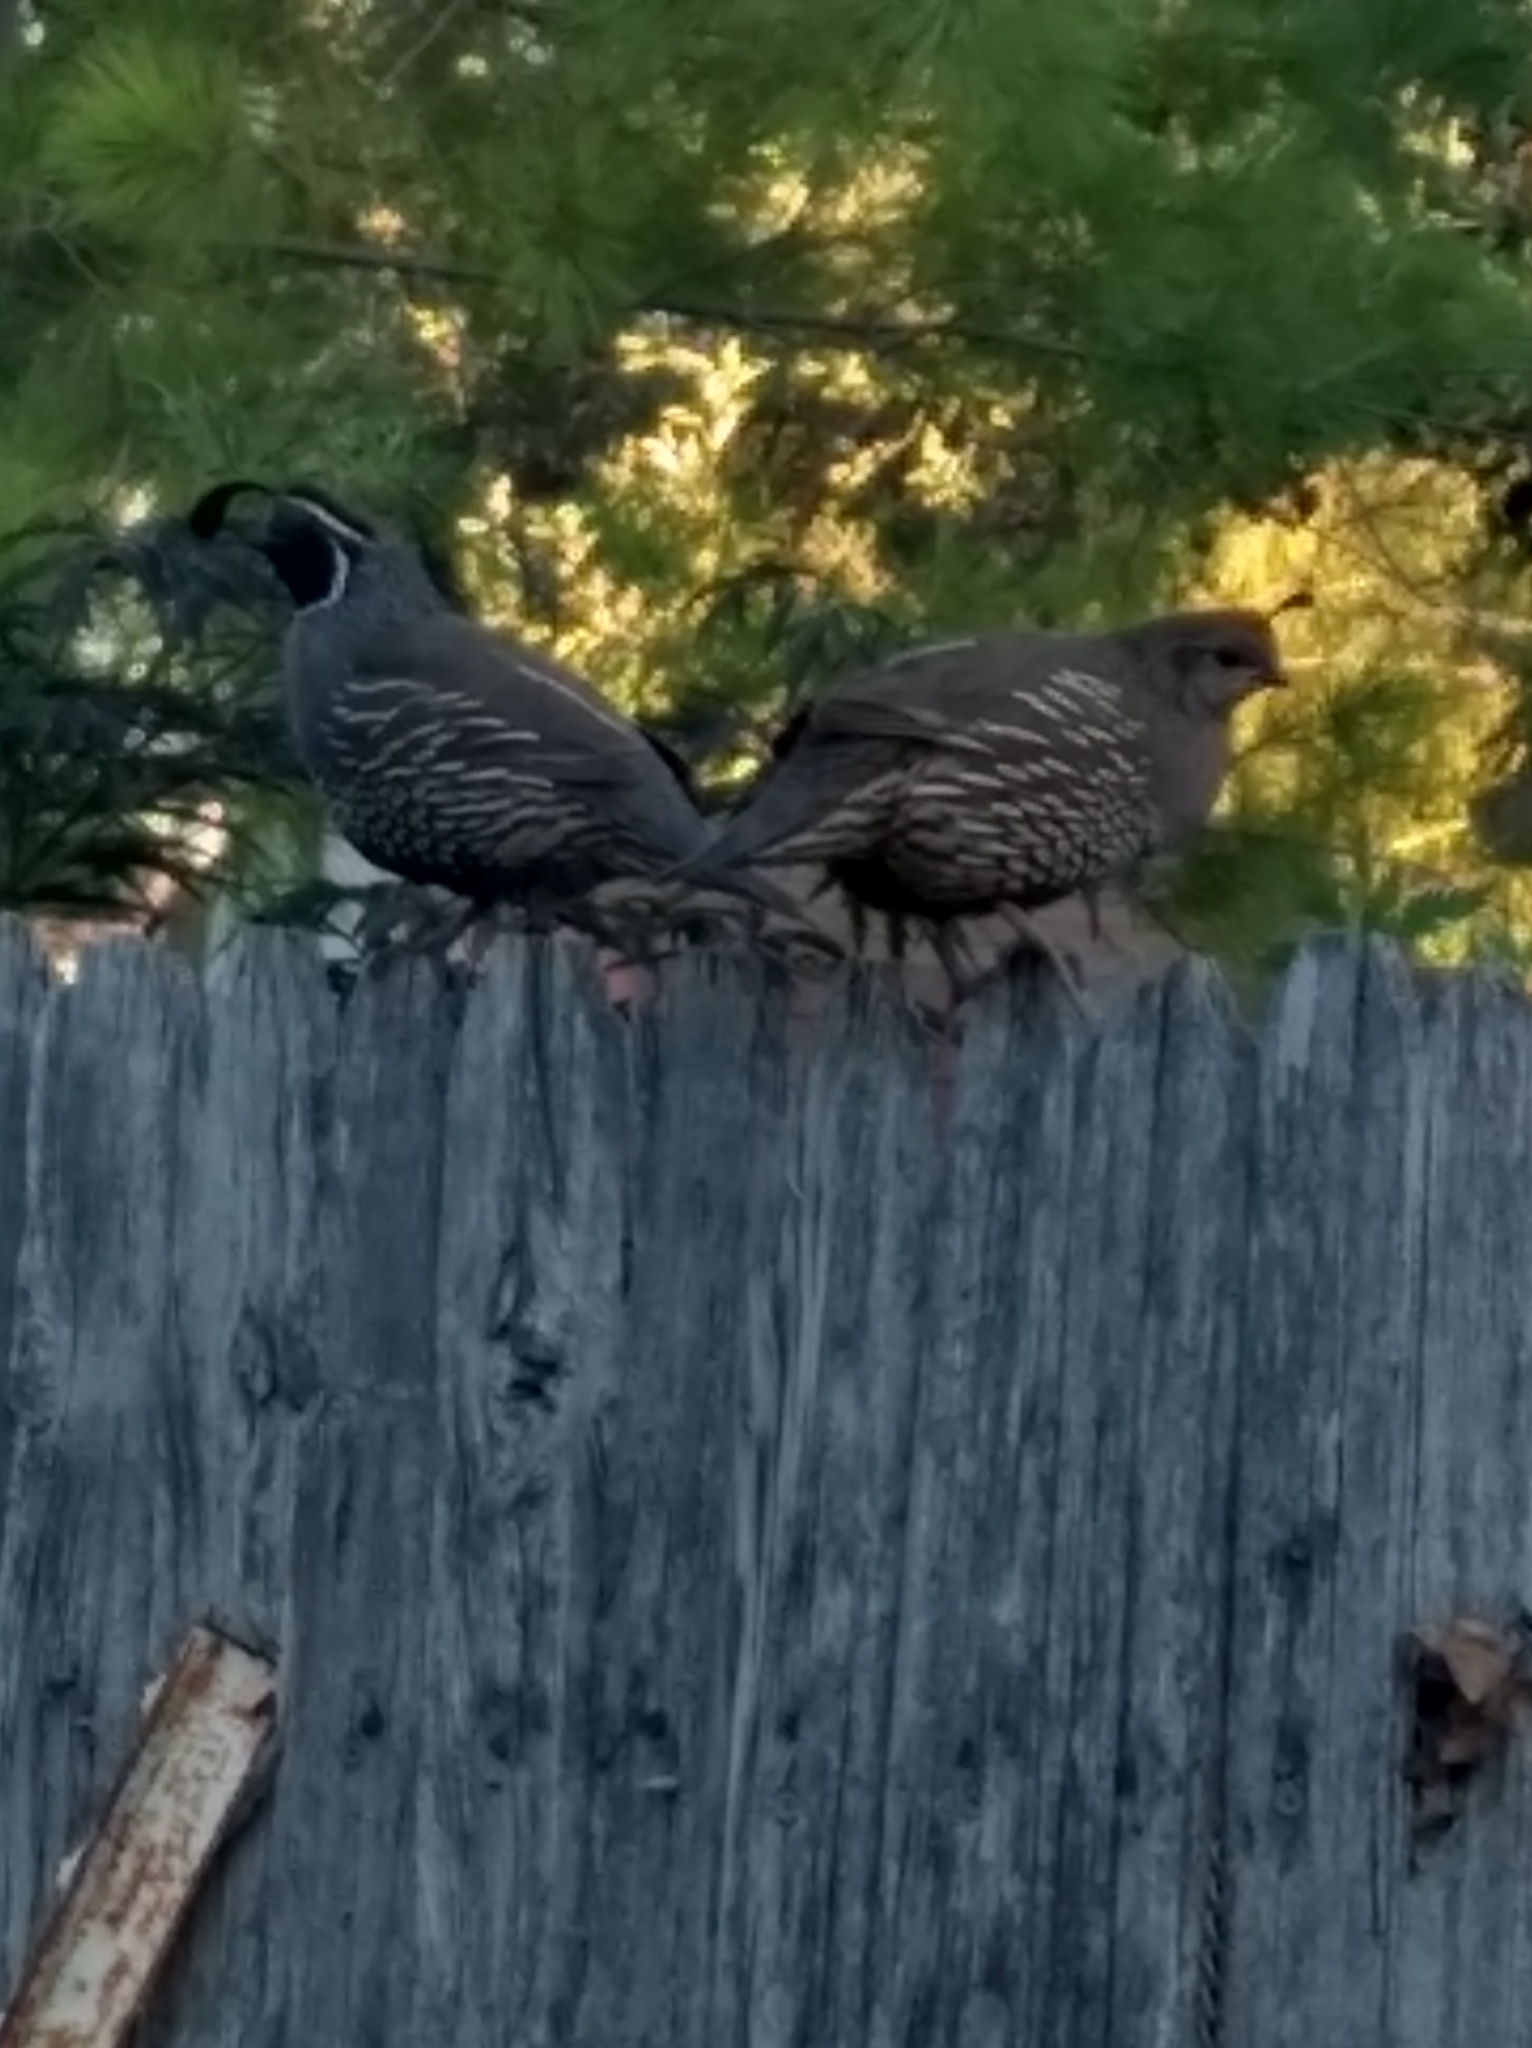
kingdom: Animalia
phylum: Chordata
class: Aves
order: Galliformes
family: Odontophoridae
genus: Callipepla
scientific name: Callipepla californica
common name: California quail
